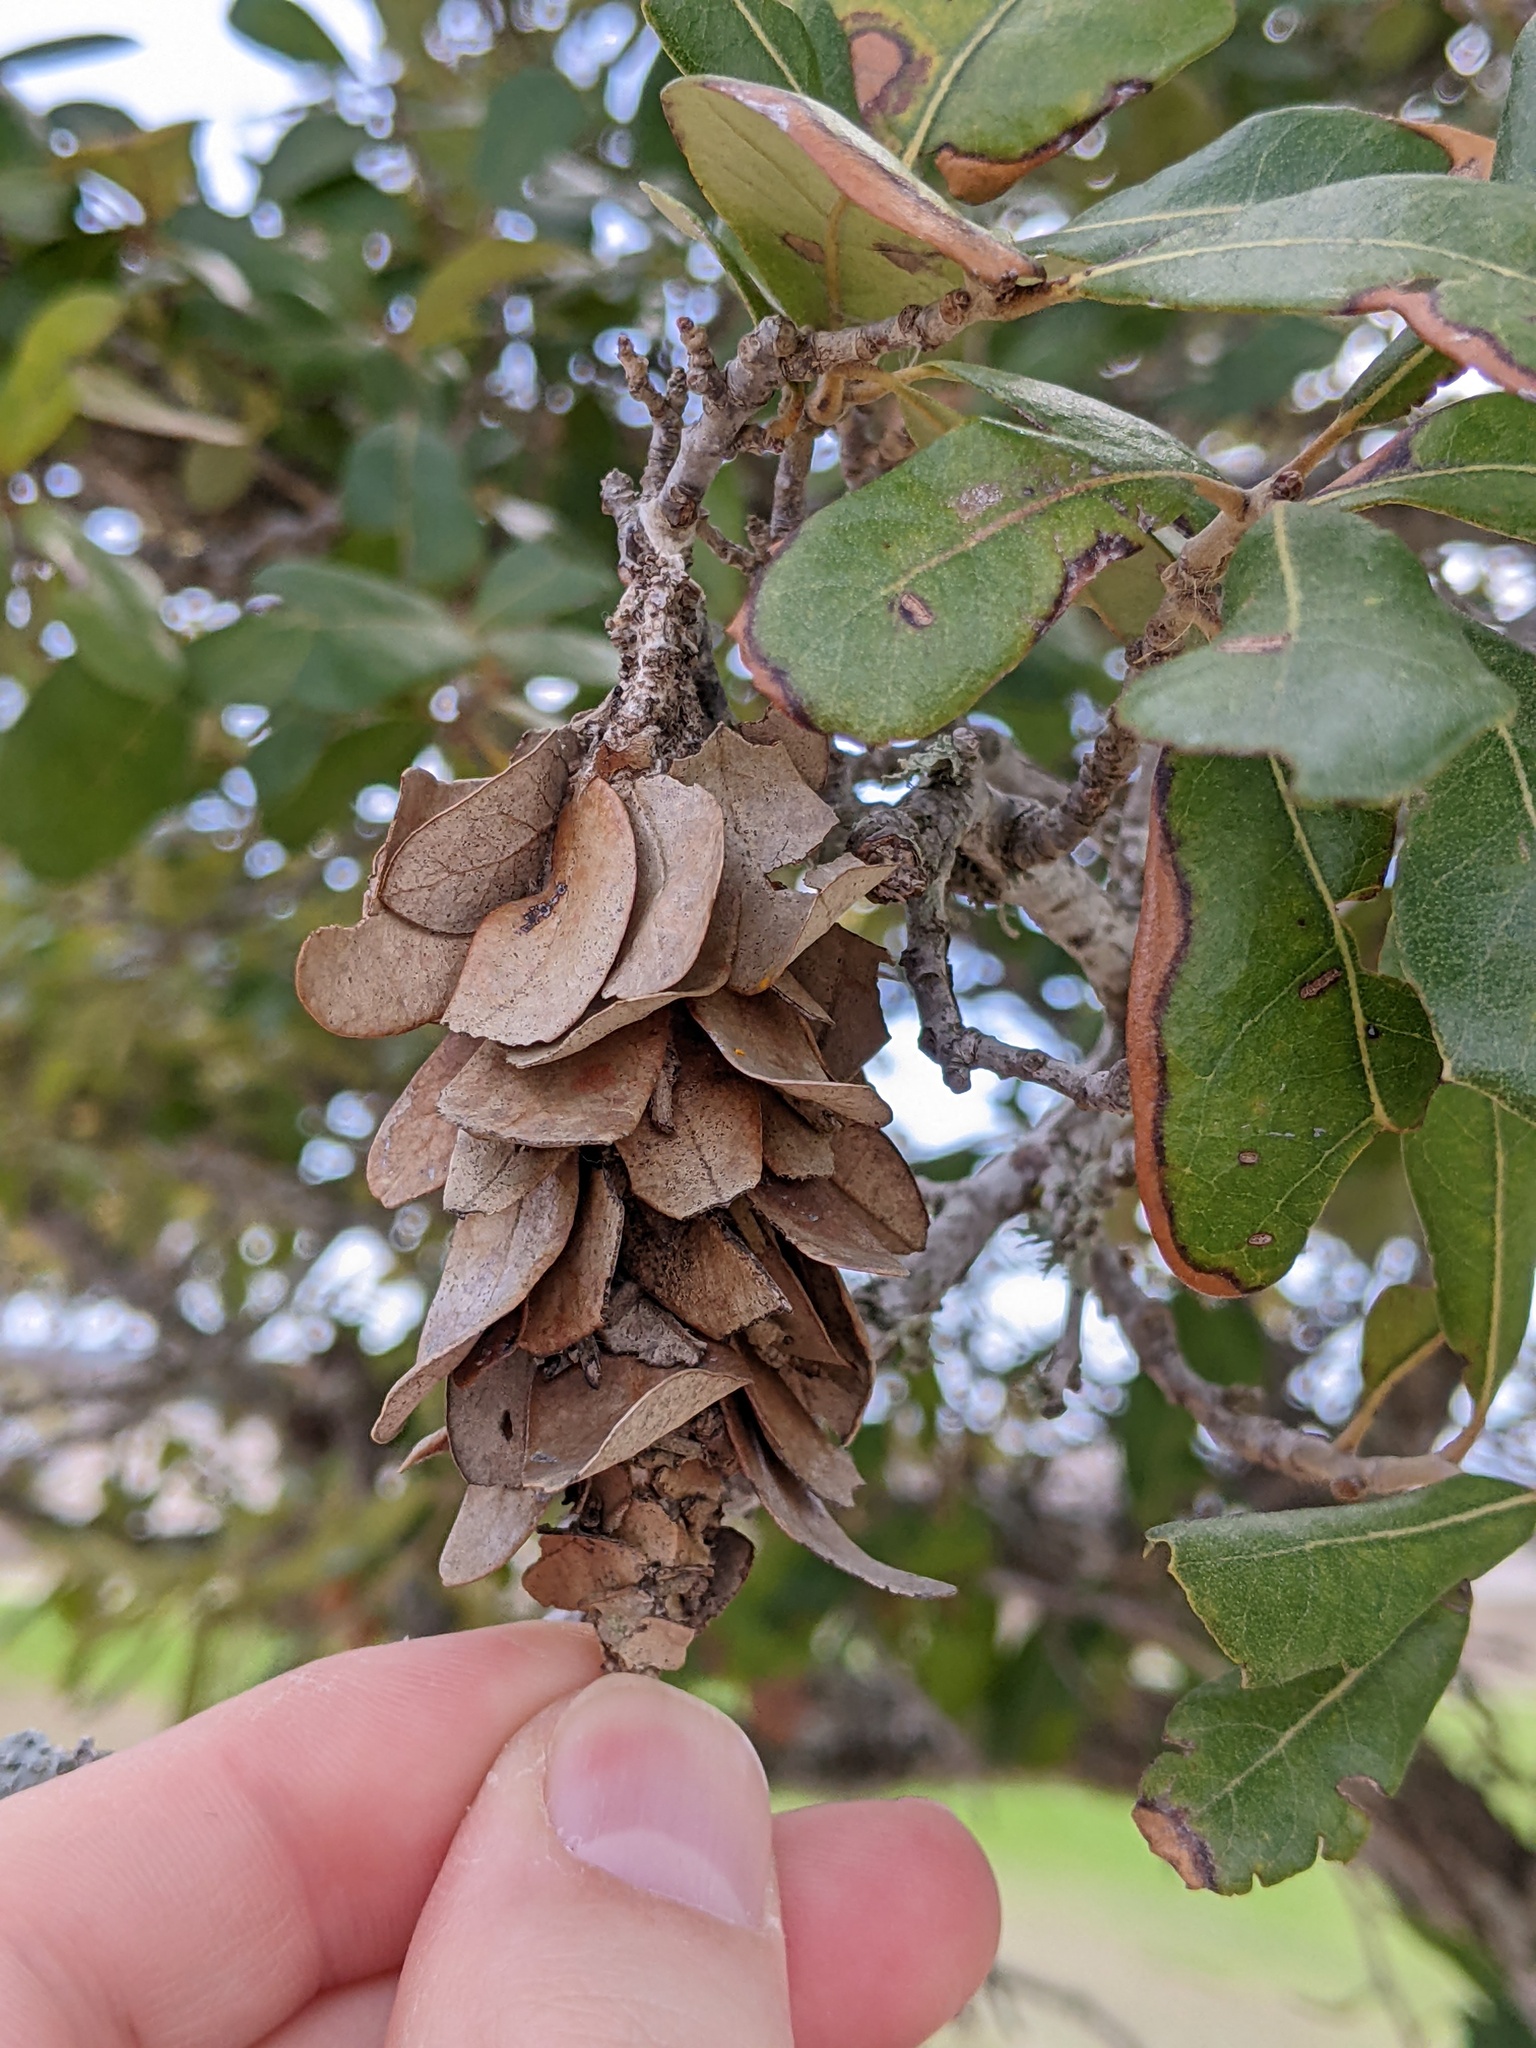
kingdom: Animalia
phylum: Arthropoda
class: Insecta
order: Lepidoptera
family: Psychidae
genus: Oiketicus
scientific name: Oiketicus
